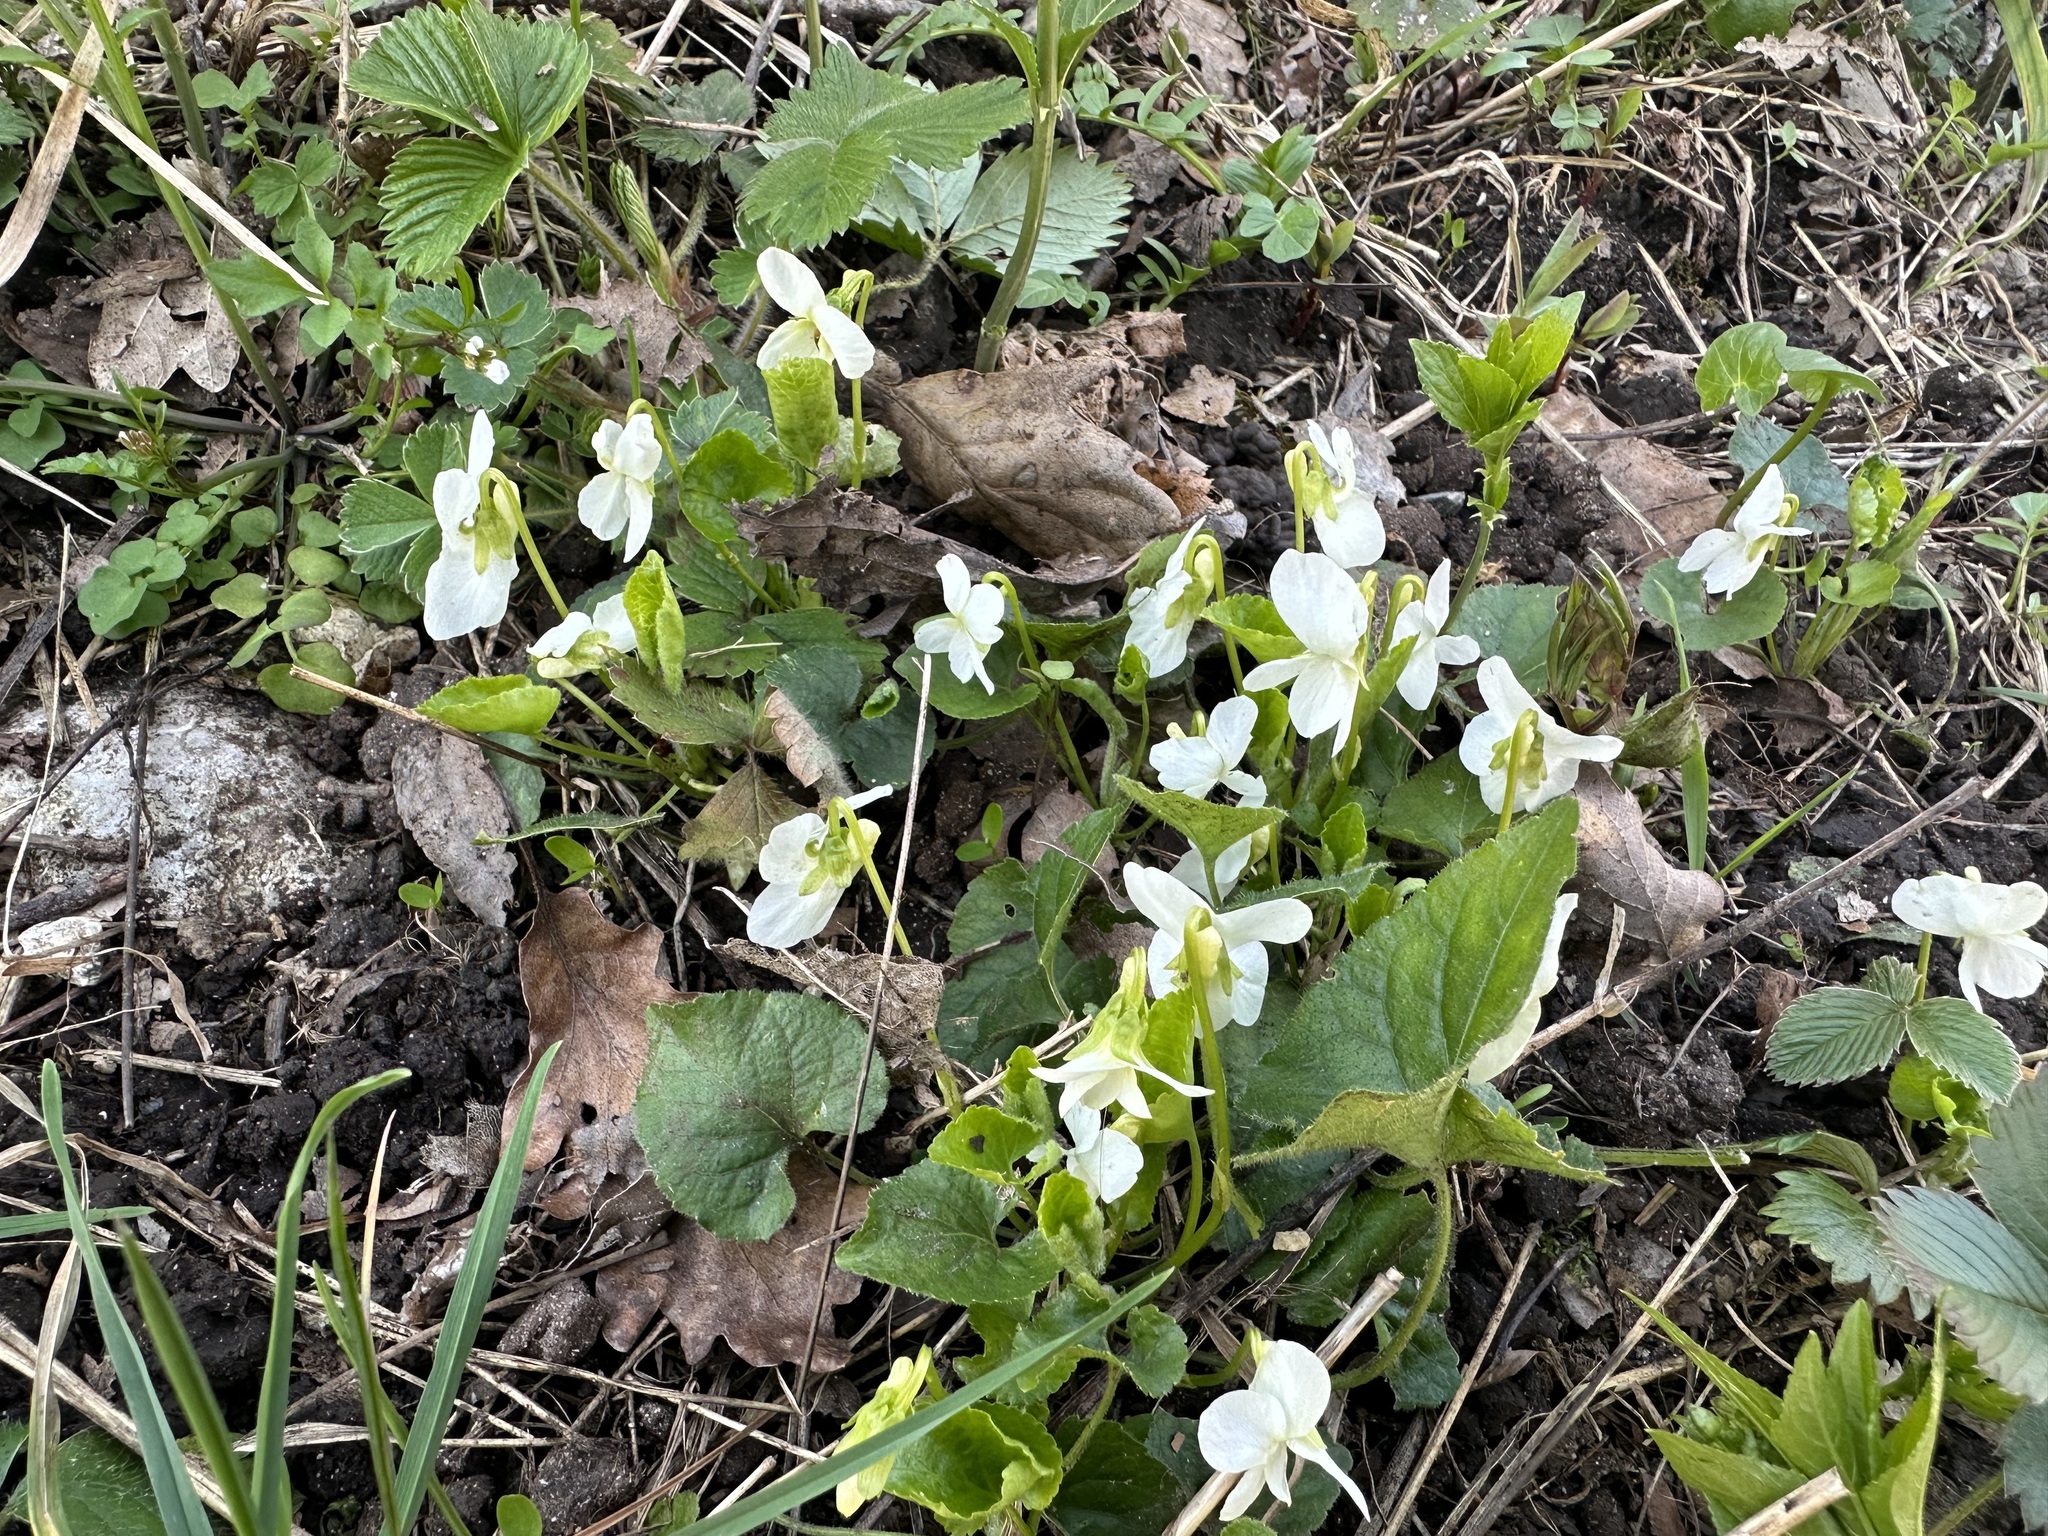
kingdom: Plantae
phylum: Tracheophyta
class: Magnoliopsida
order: Malpighiales
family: Violaceae
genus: Viola
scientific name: Viola alba
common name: White violet
